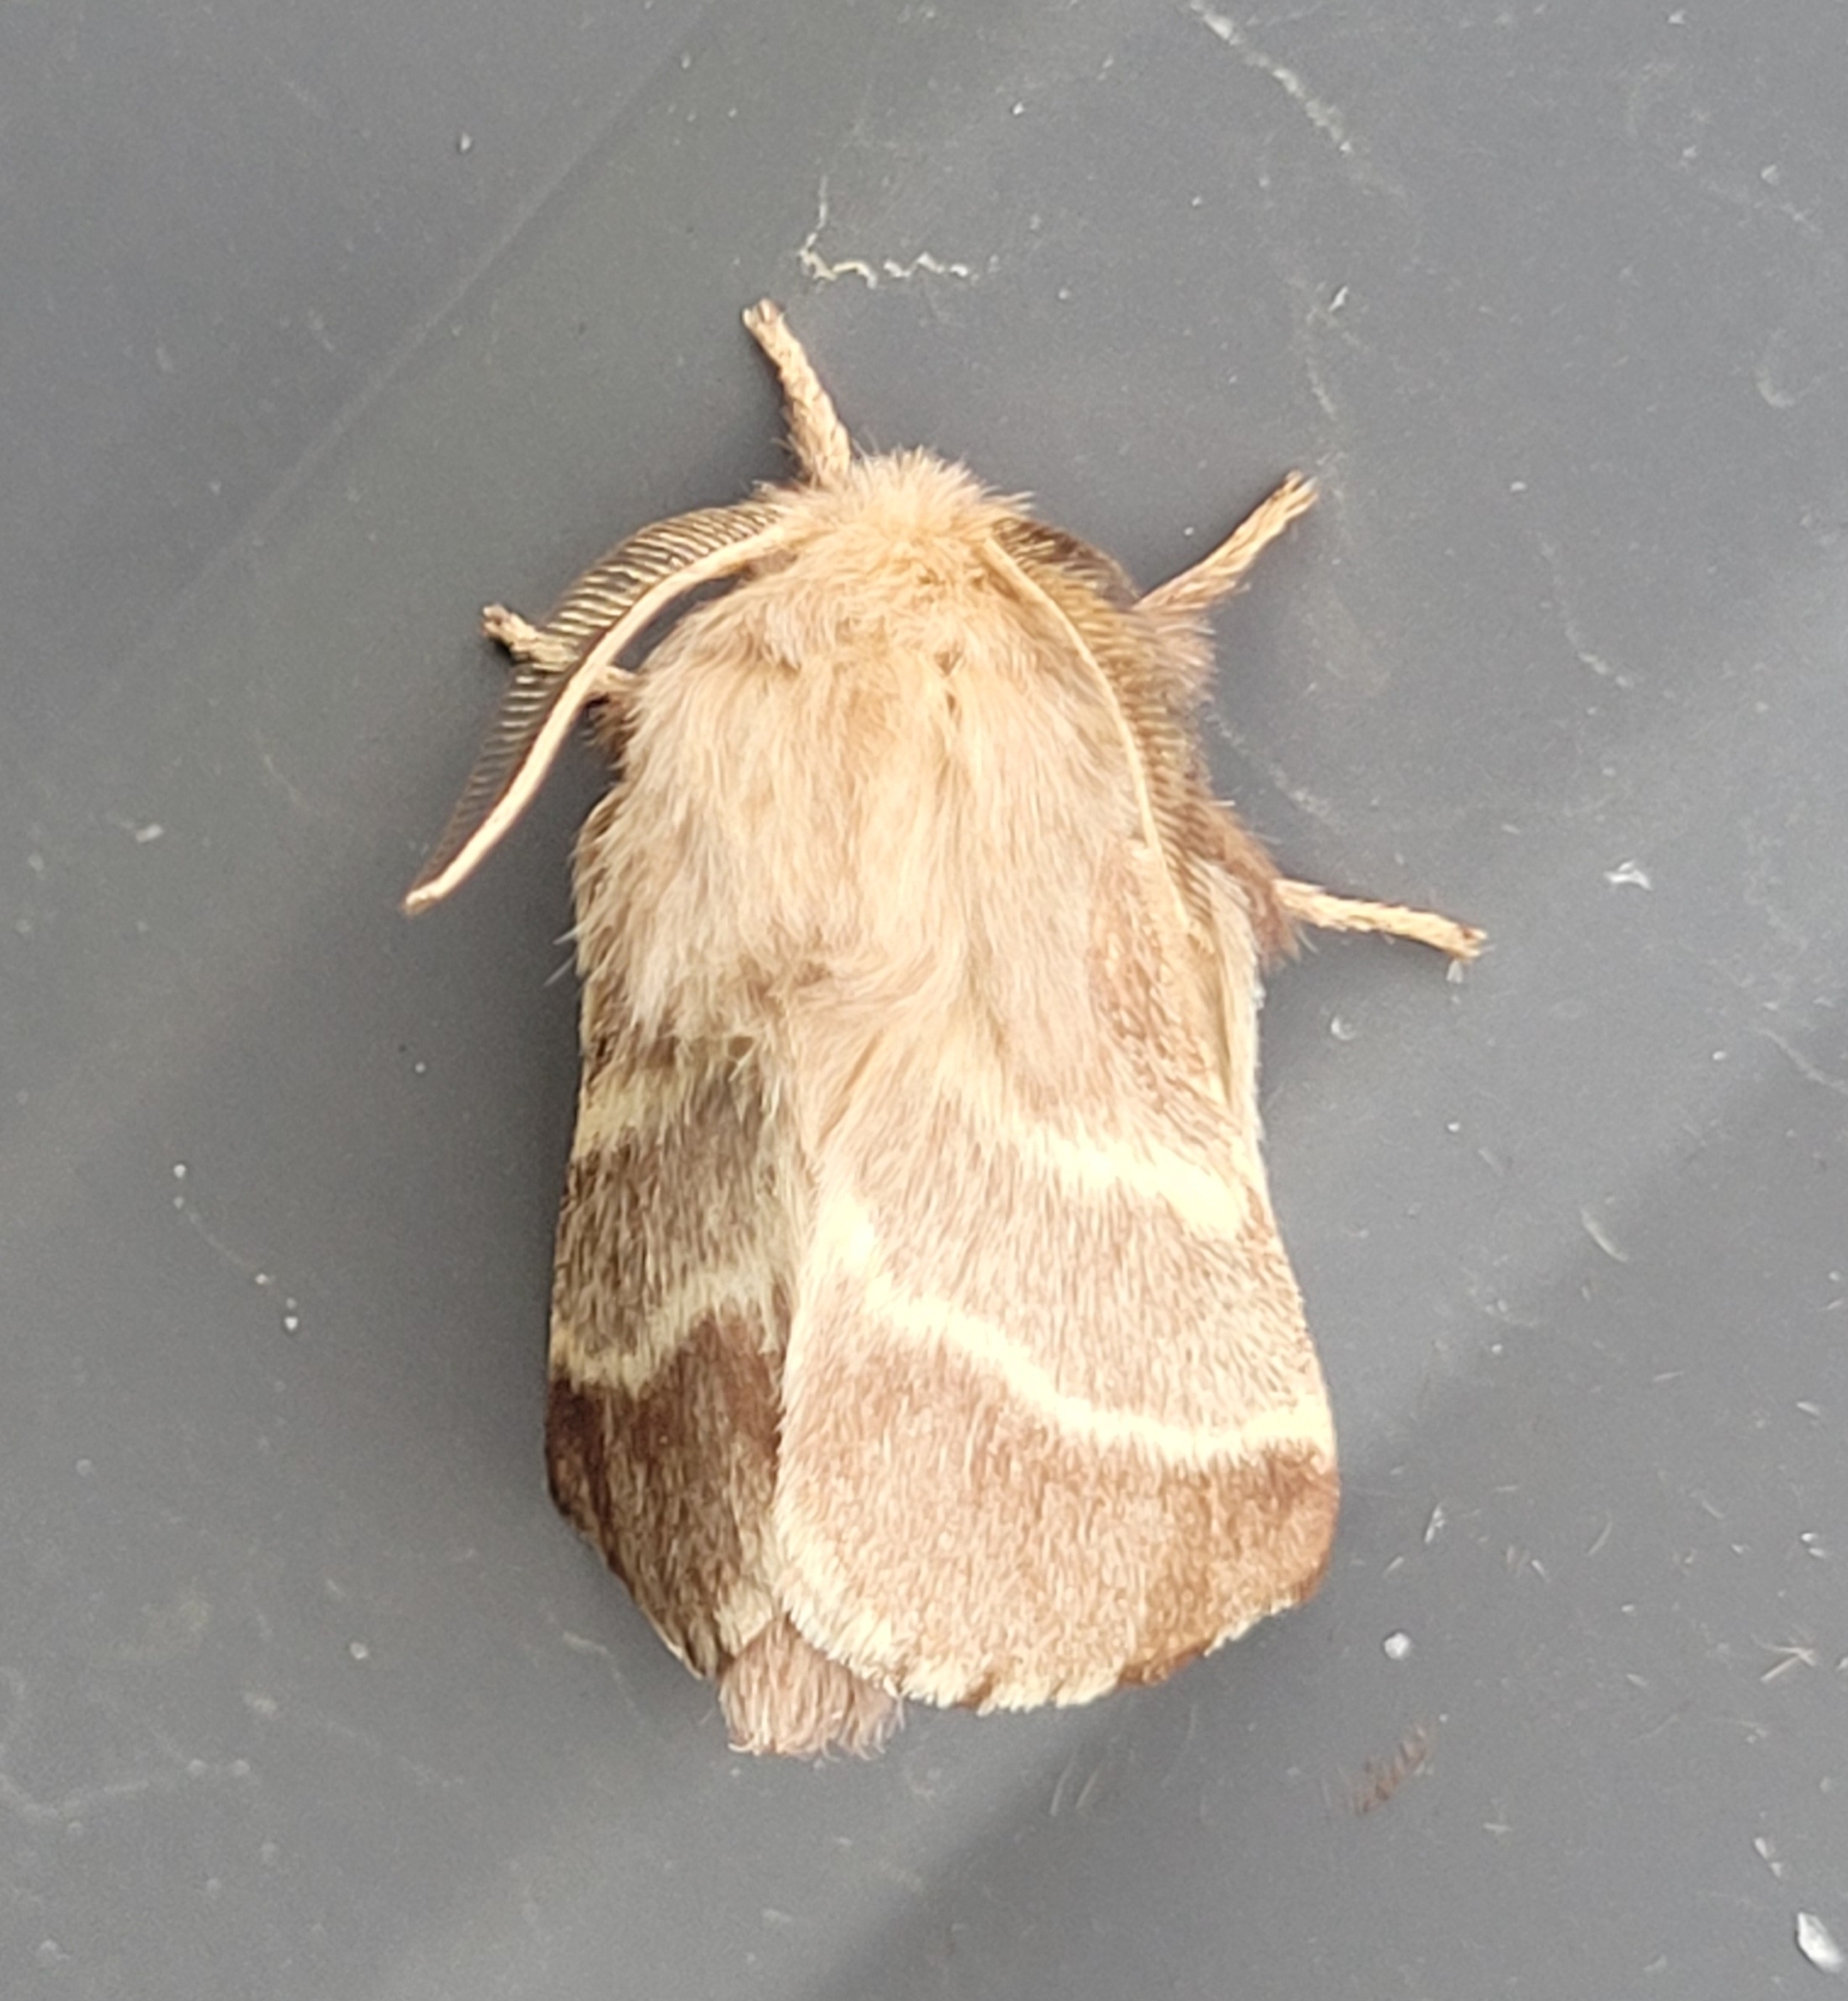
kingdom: Animalia
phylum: Arthropoda
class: Insecta
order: Lepidoptera
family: Lasiocampidae
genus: Malacosoma
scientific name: Malacosoma americana
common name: Eastern tent caterpillar moth
